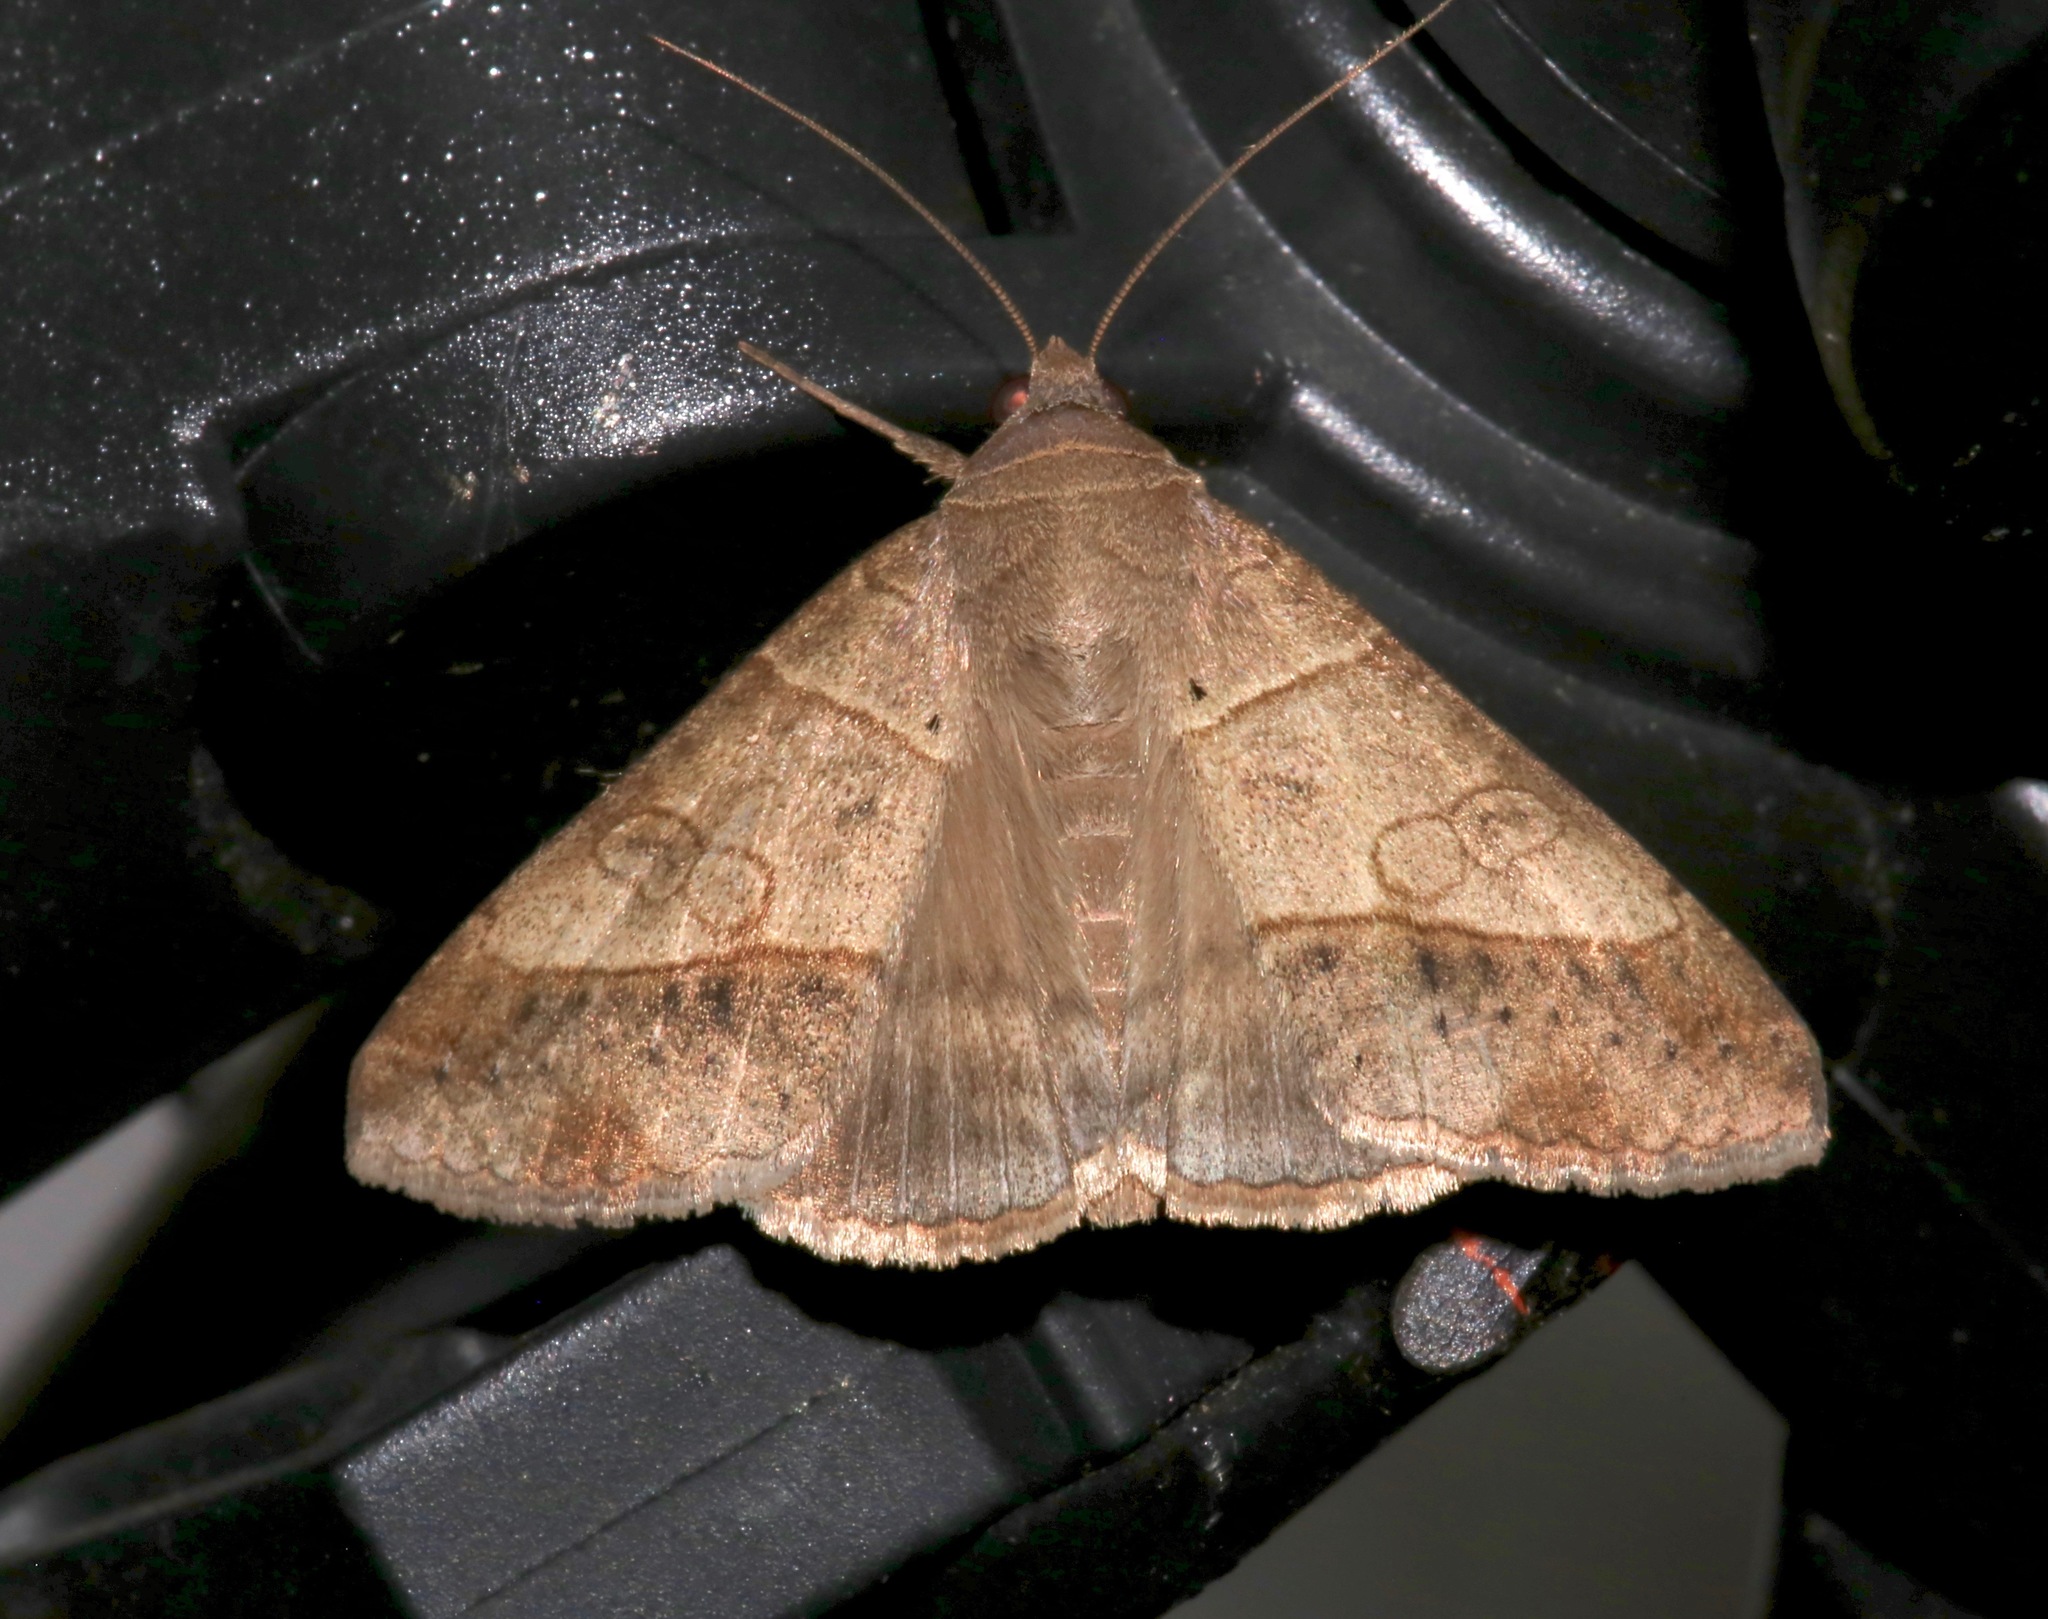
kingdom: Animalia
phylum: Arthropoda
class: Insecta
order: Lepidoptera
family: Erebidae
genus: Mocis
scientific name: Mocis latipes
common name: Striped grass looper
